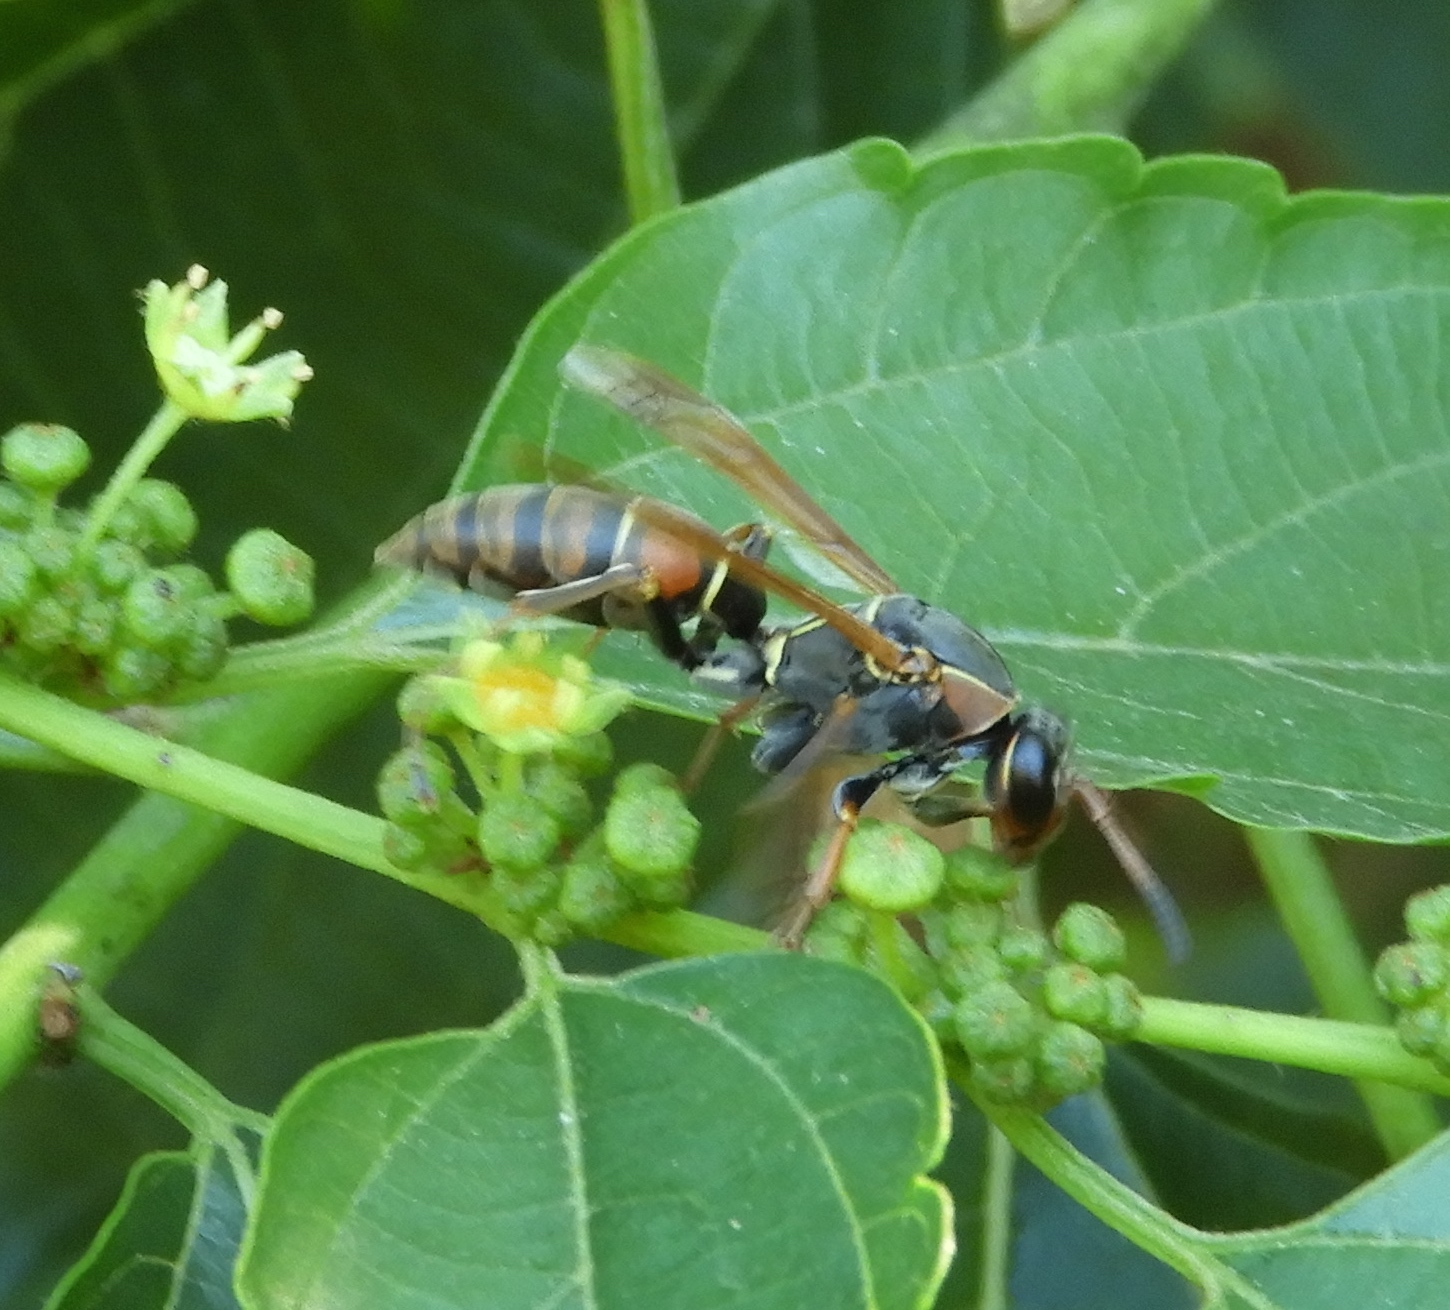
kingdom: Animalia
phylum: Arthropoda
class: Insecta
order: Hymenoptera
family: Eumenidae
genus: Polistes
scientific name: Polistes pacificus
